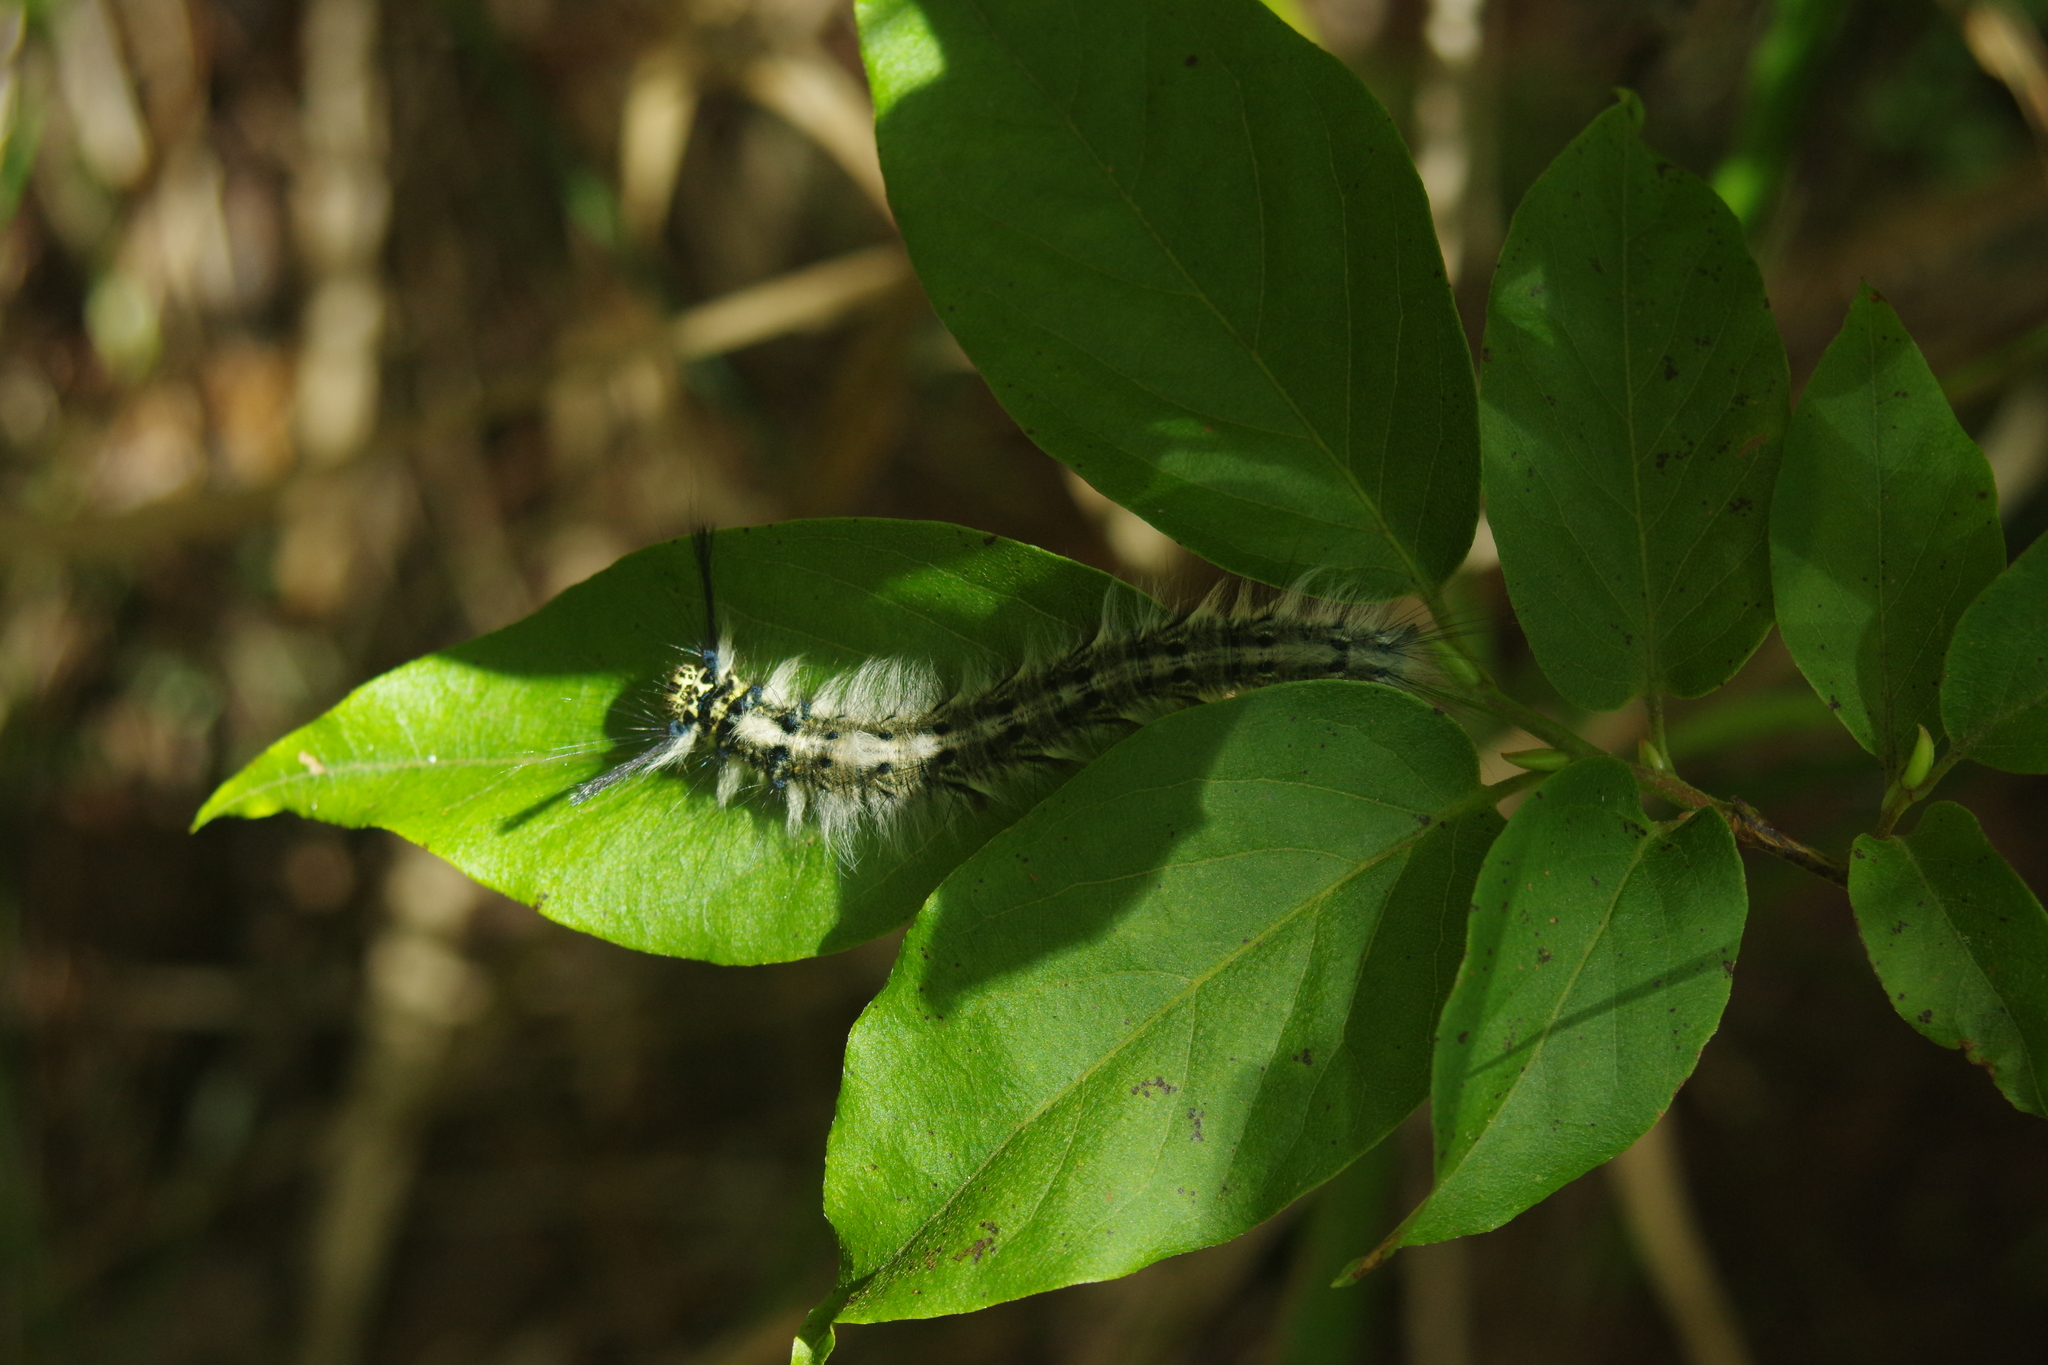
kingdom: Animalia
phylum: Arthropoda
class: Insecta
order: Lepidoptera
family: Lasiocampidae
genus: Trabala
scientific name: Trabala vishnou
